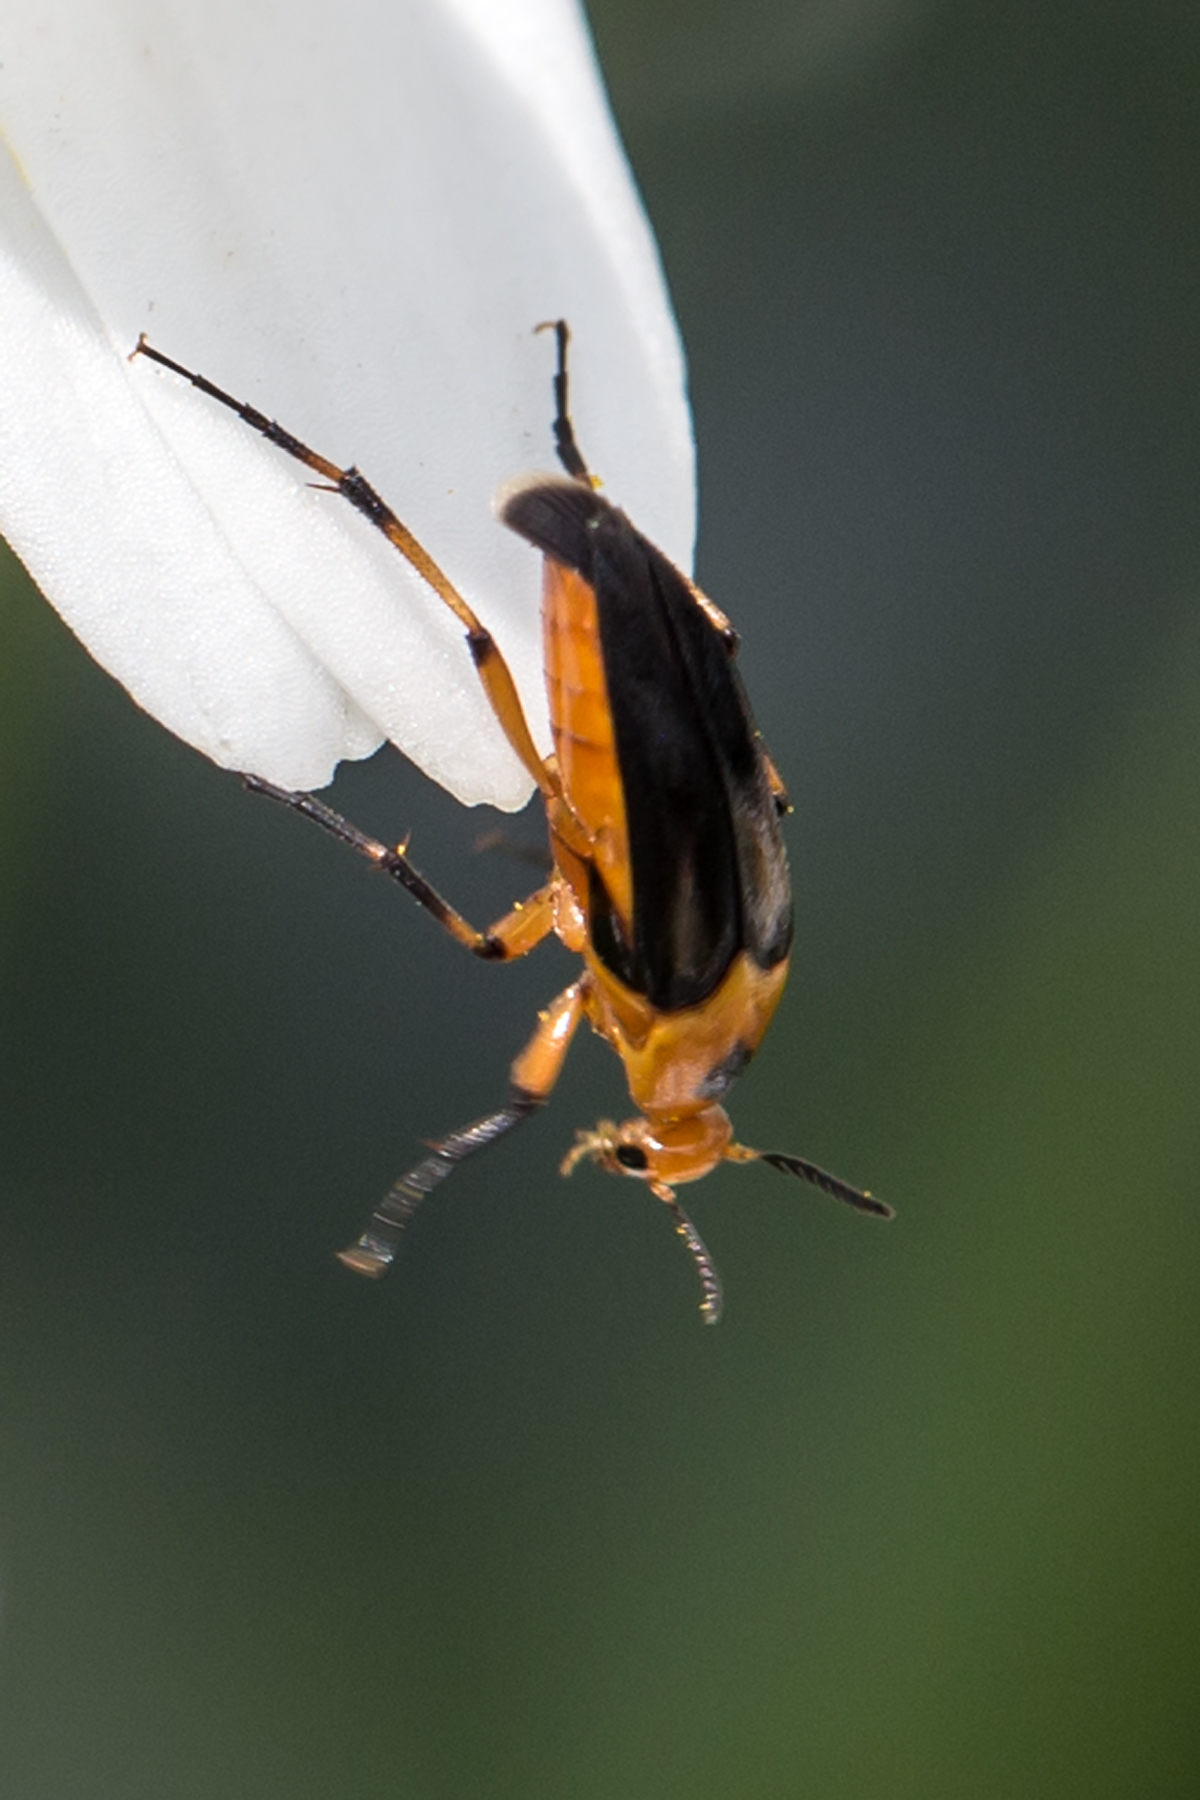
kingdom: Animalia
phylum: Arthropoda
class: Insecta
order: Coleoptera
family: Ripiphoridae
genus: Macrosiagon
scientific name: Macrosiagon limbatum
